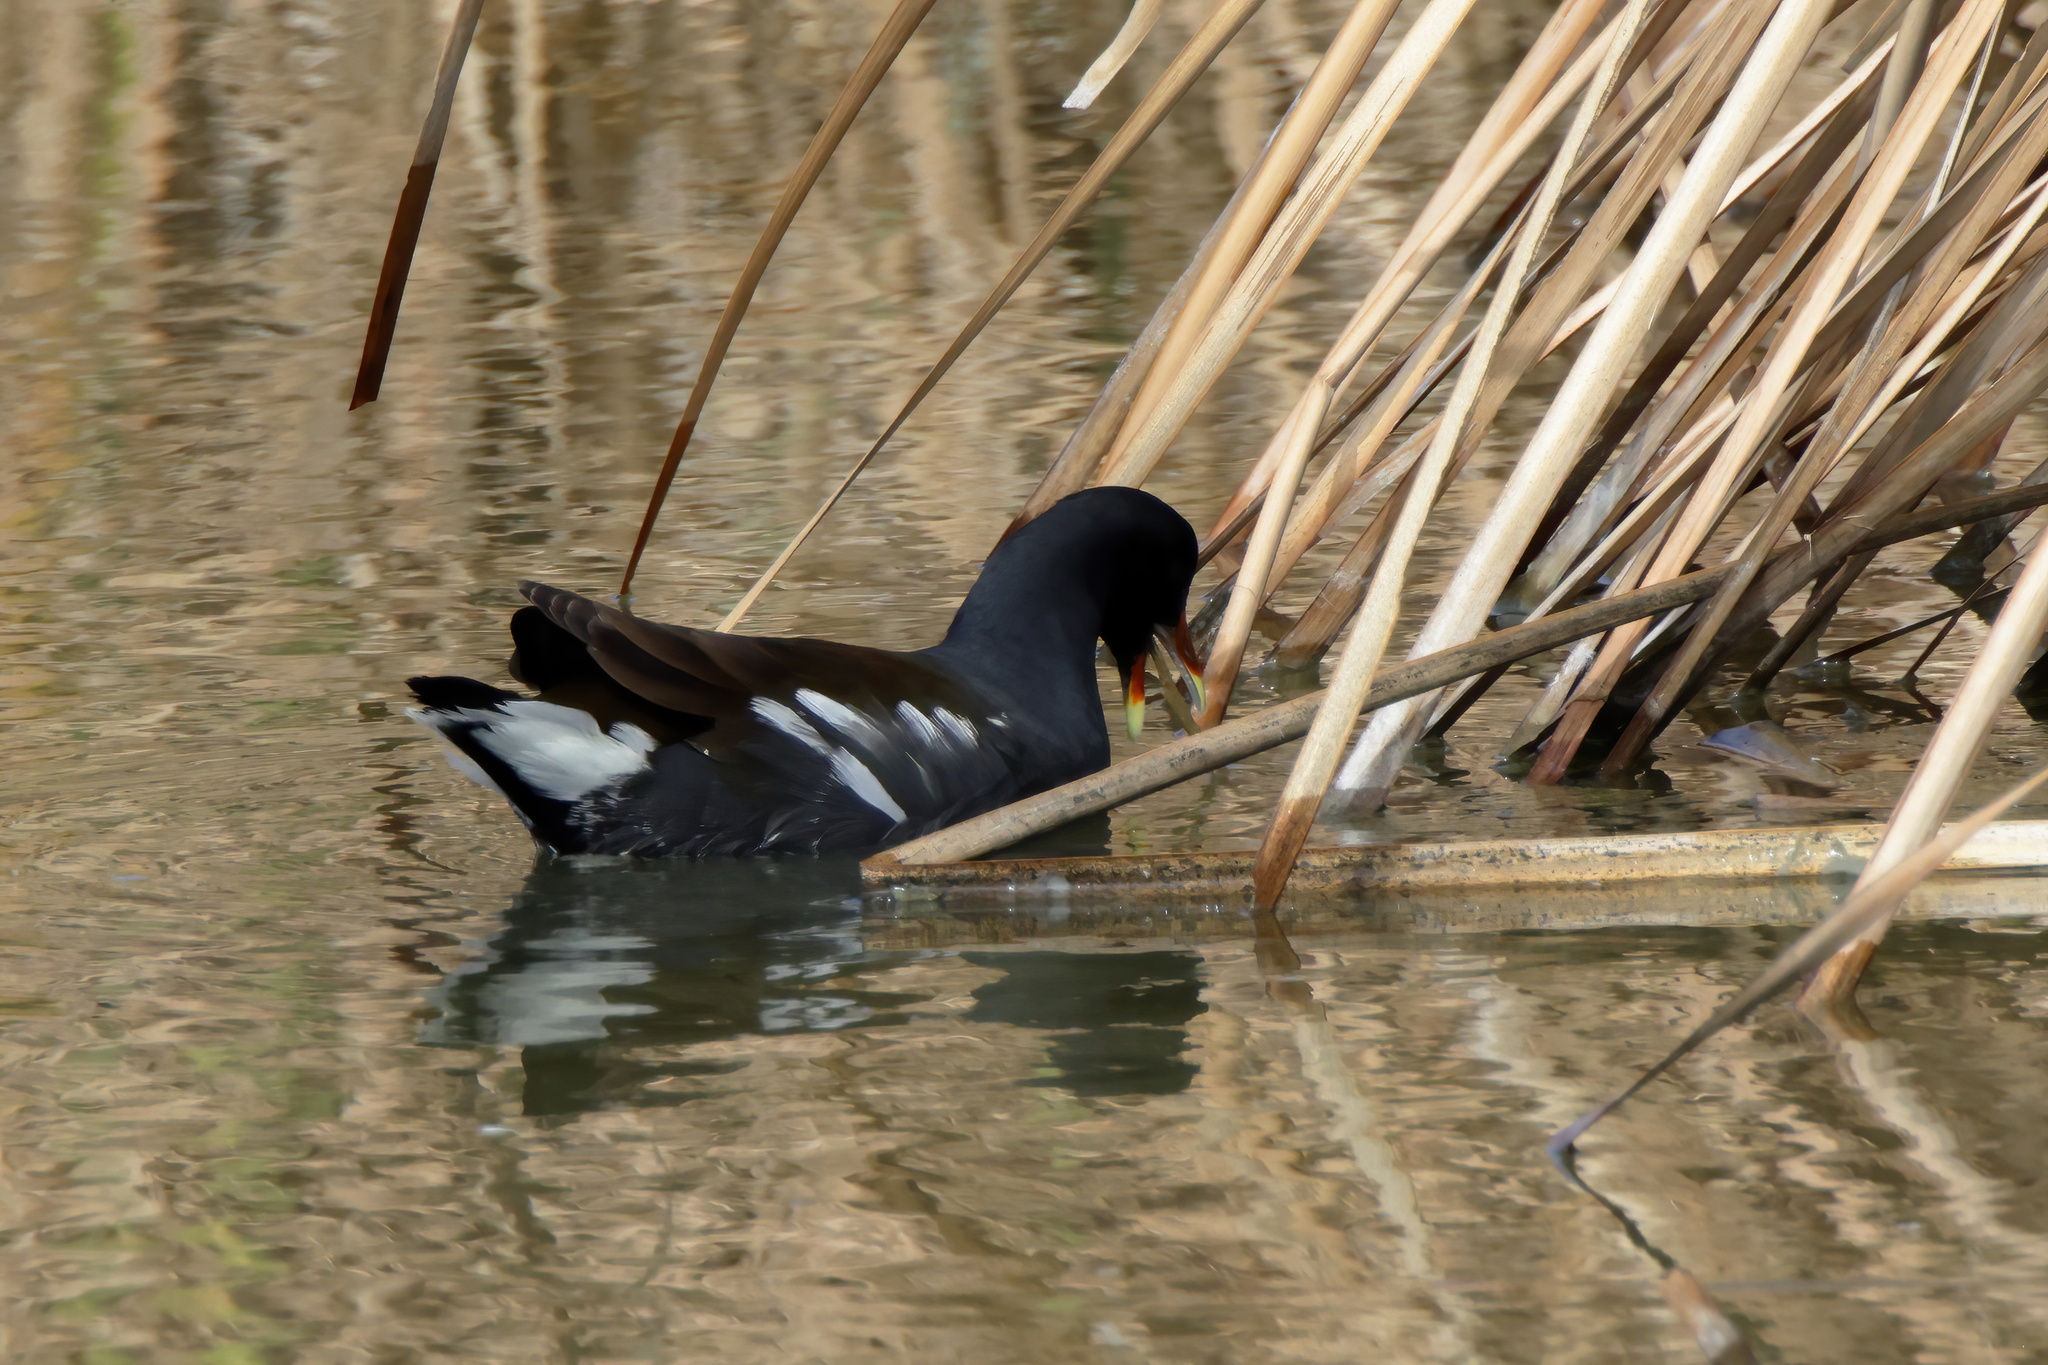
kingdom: Animalia
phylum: Chordata
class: Aves
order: Gruiformes
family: Rallidae
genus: Gallinula
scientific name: Gallinula chloropus
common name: Common moorhen
